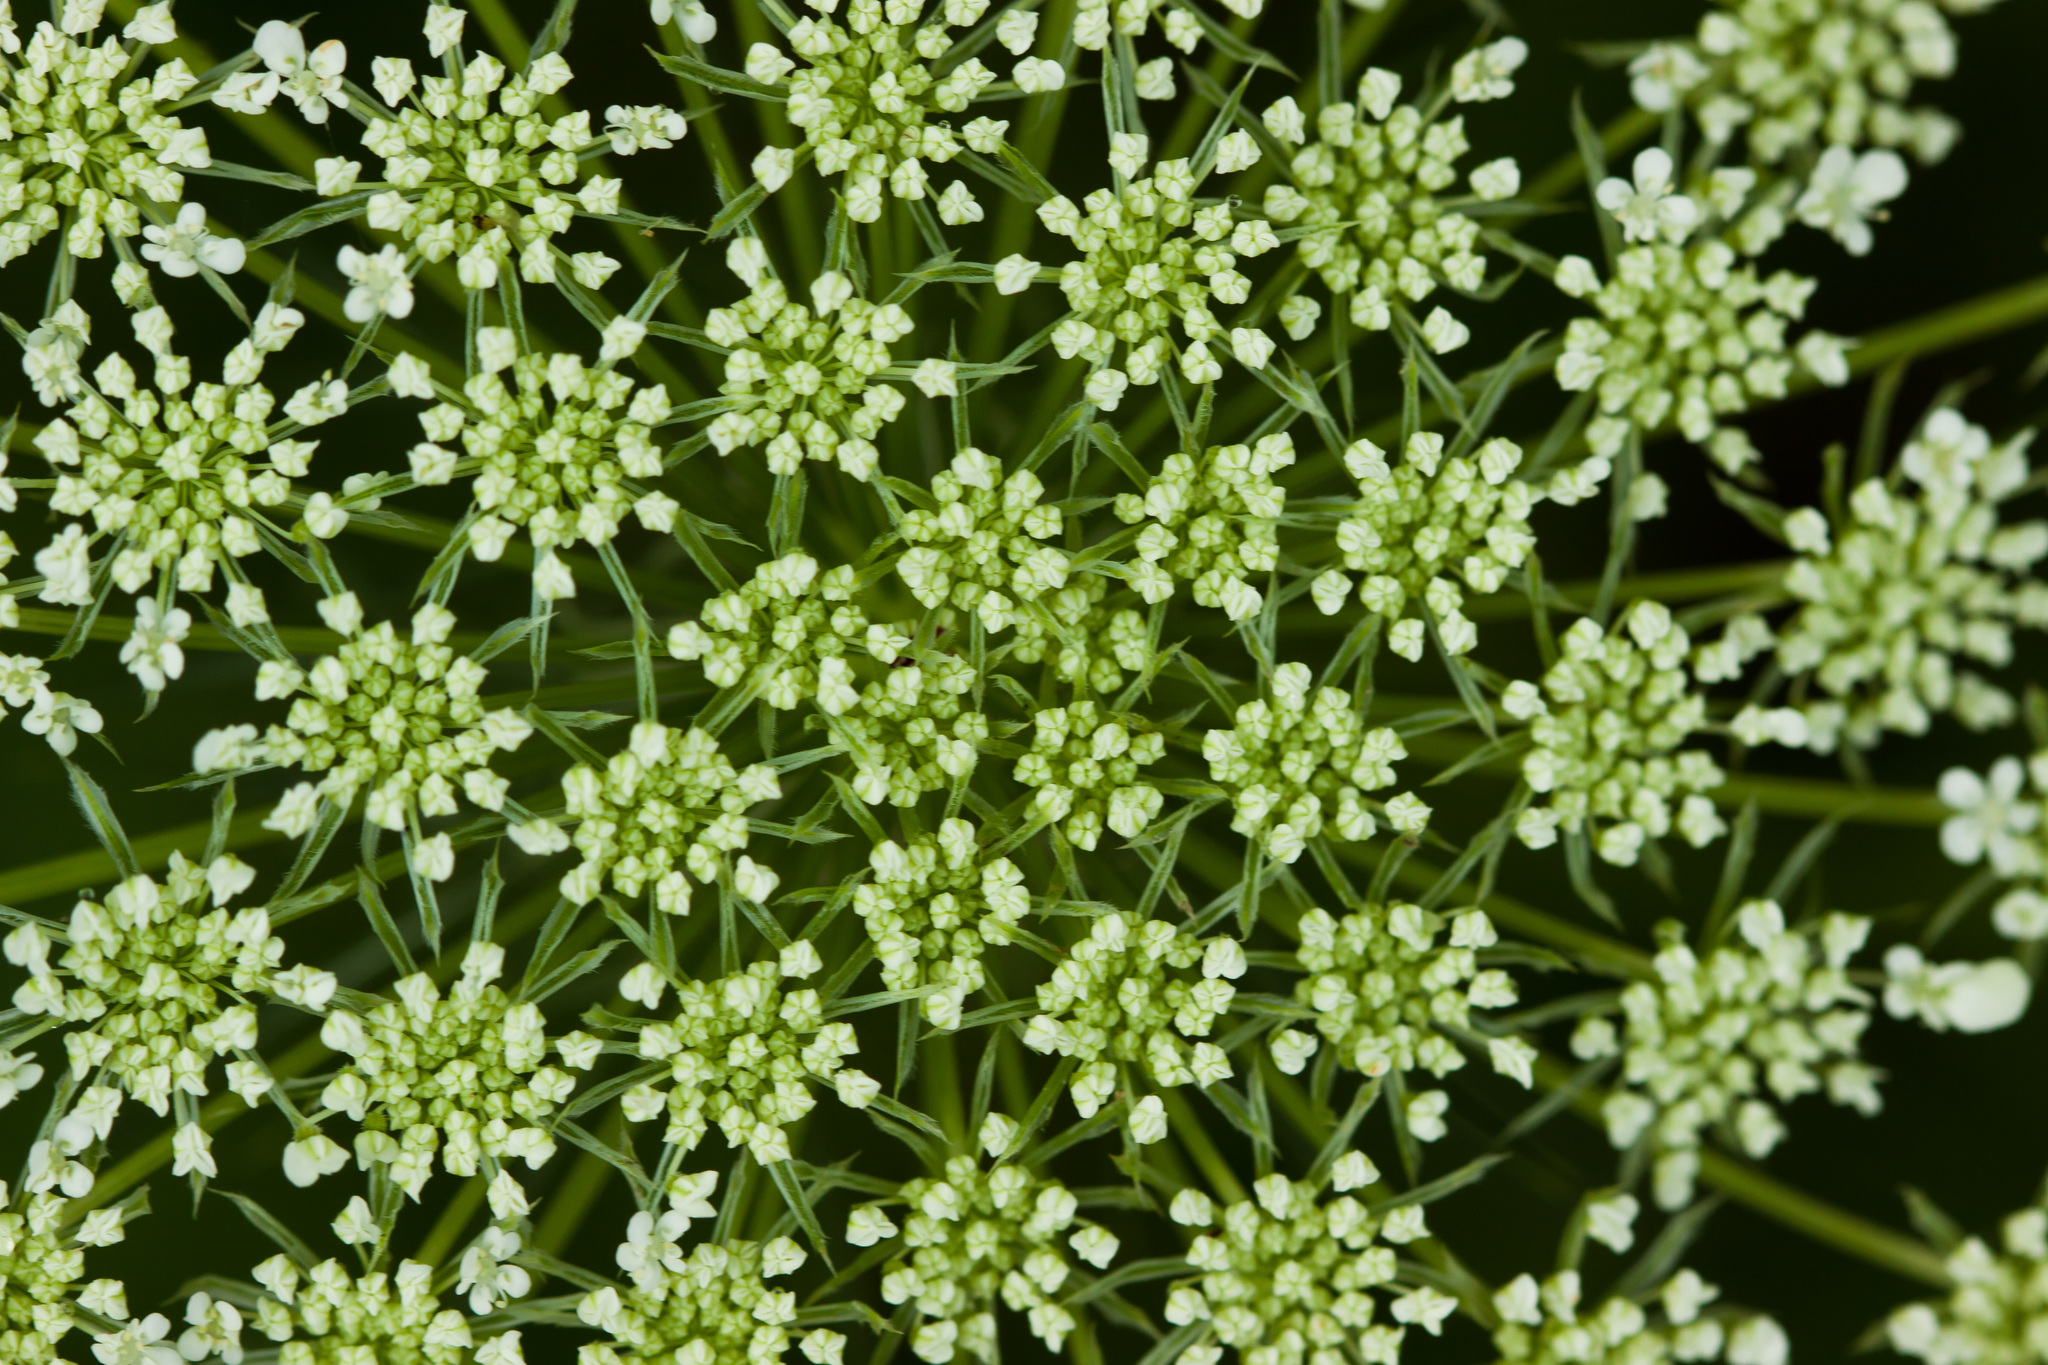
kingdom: Plantae
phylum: Tracheophyta
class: Magnoliopsida
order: Apiales
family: Apiaceae
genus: Daucus
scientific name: Daucus carota
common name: Wild carrot
